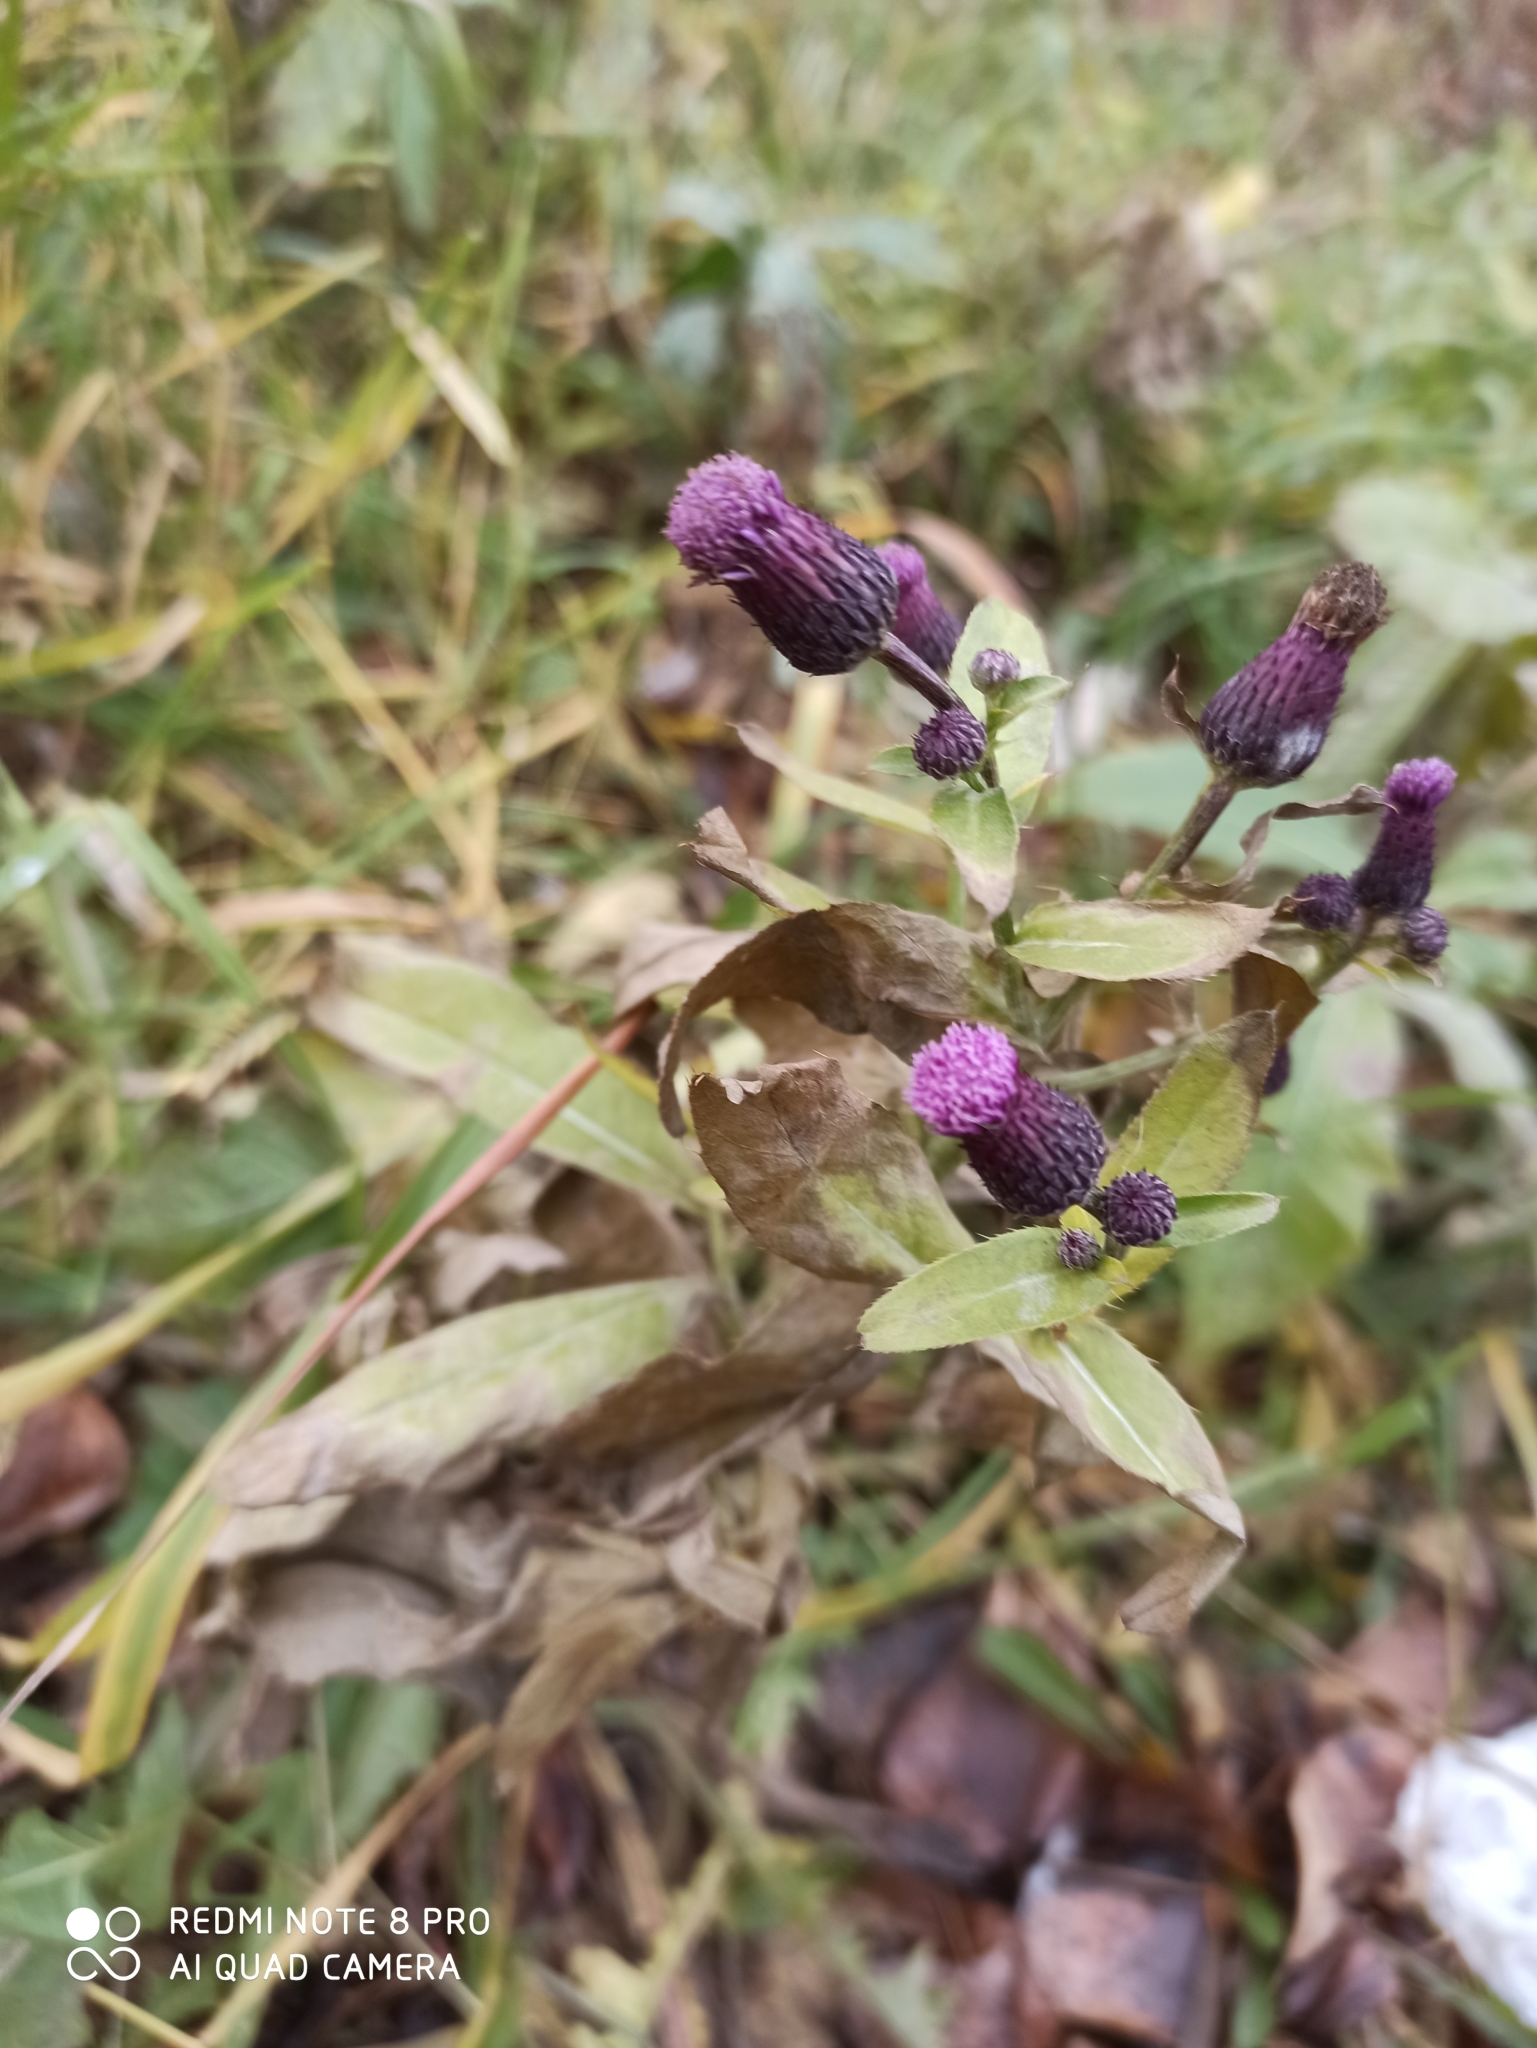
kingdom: Plantae
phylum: Tracheophyta
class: Magnoliopsida
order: Asterales
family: Asteraceae
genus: Cirsium
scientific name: Cirsium arvense
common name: Creeping thistle
